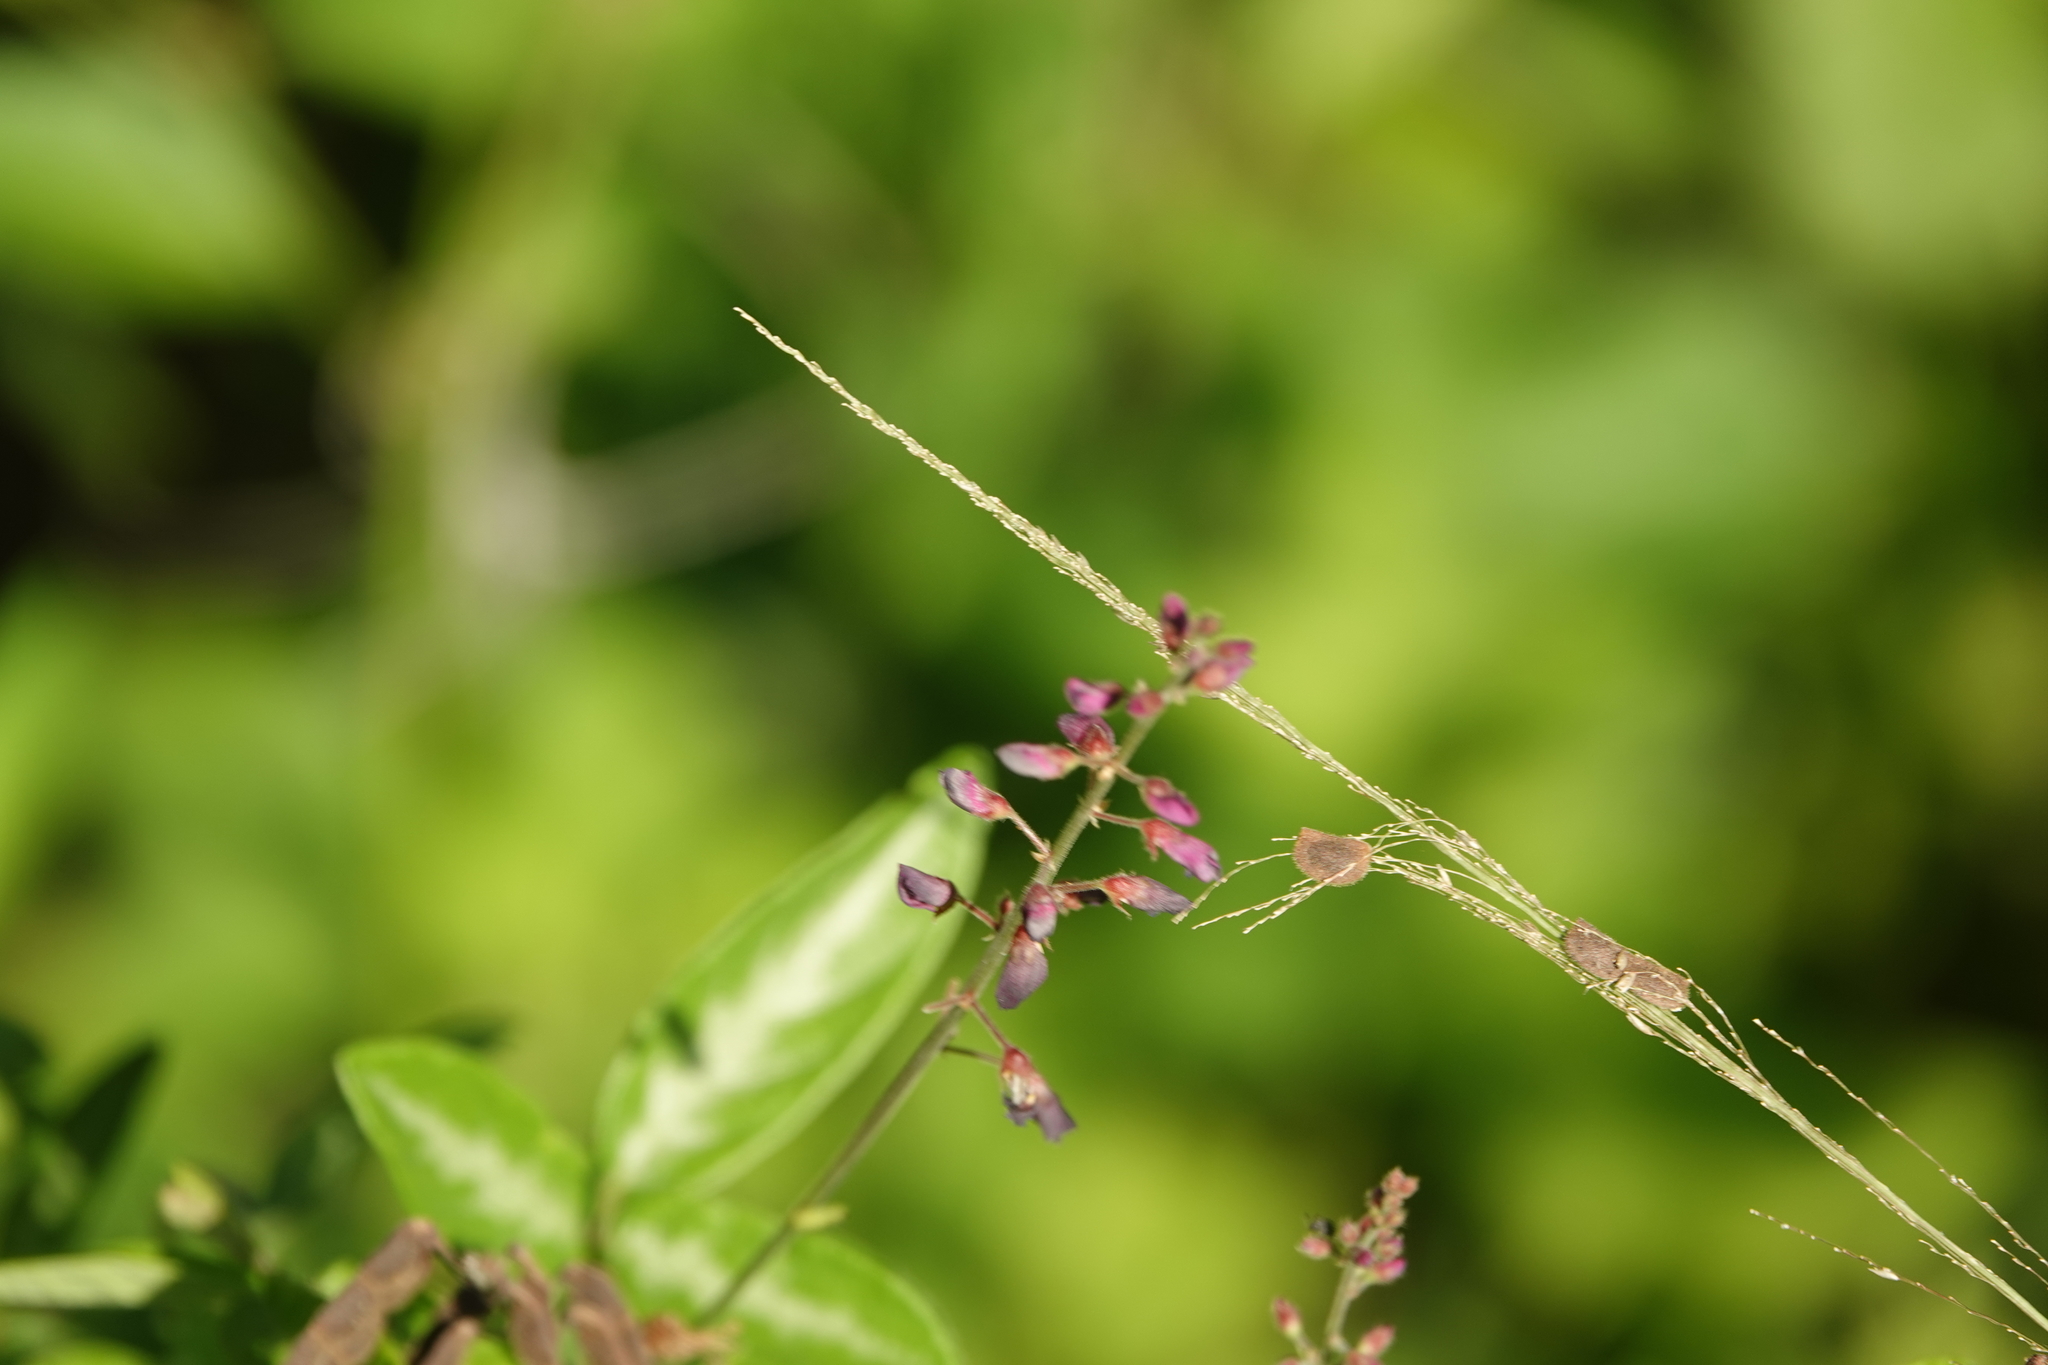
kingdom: Plantae
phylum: Tracheophyta
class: Magnoliopsida
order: Fabales
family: Fabaceae
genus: Desmodium
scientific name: Desmodium incanum
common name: Tickclover
